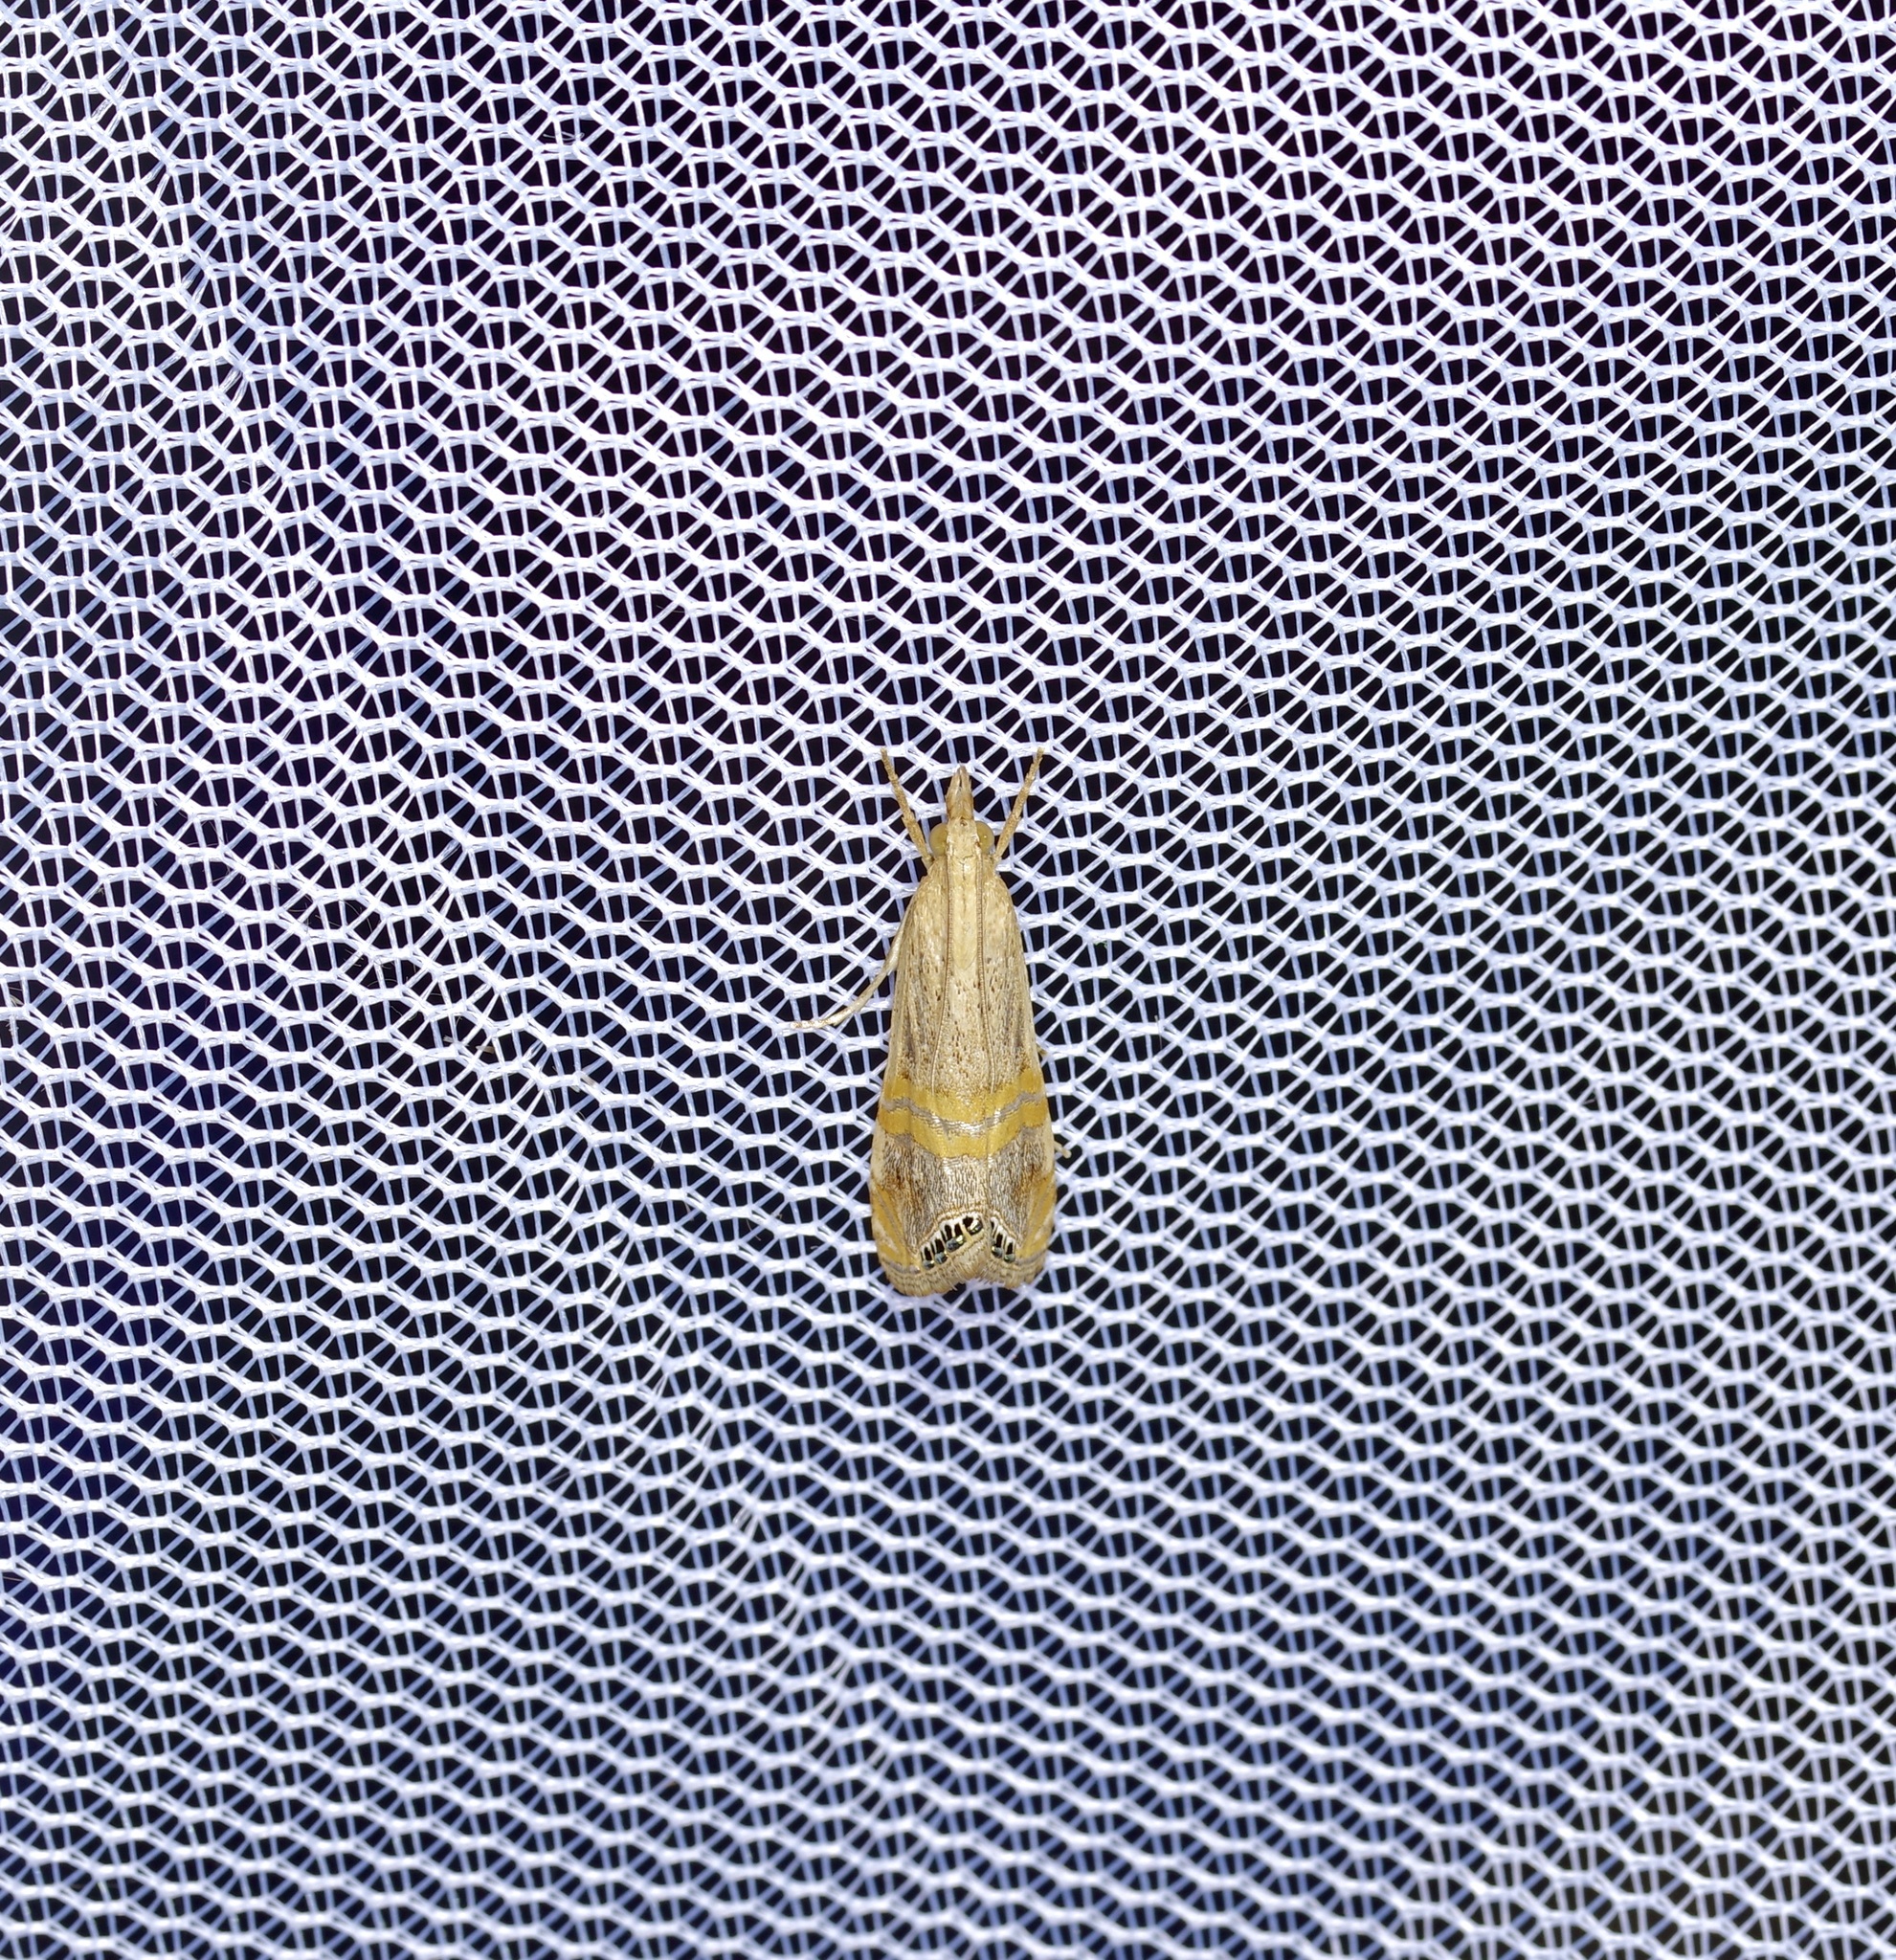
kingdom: Animalia
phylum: Arthropoda
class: Insecta
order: Lepidoptera
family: Crambidae
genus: Euchromius
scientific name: Euchromius ocellea
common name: Necklace veneer moth
